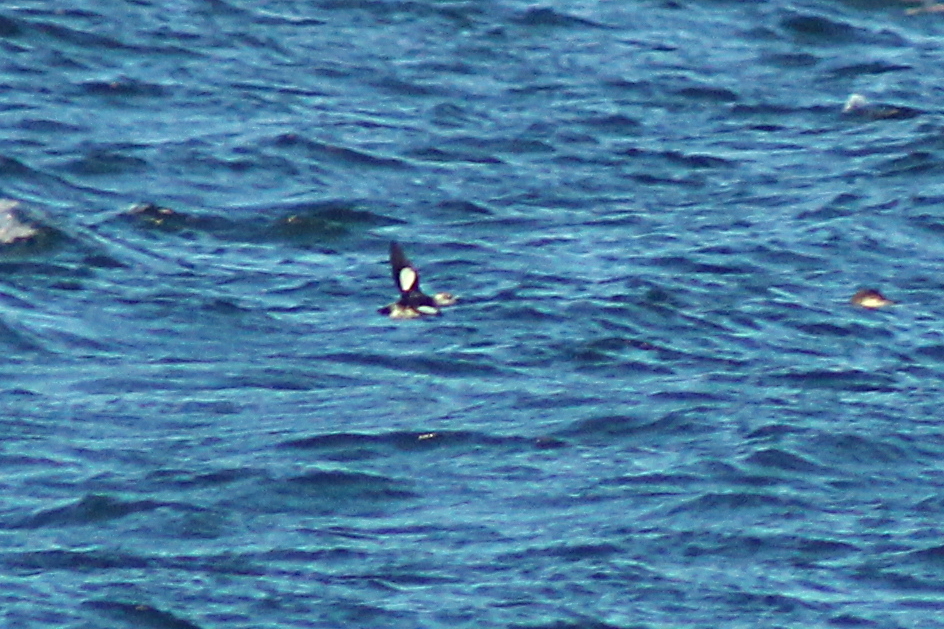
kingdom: Animalia
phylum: Chordata
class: Aves
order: Charadriiformes
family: Alcidae
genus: Cepphus
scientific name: Cepphus grylle
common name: Black guillemot
